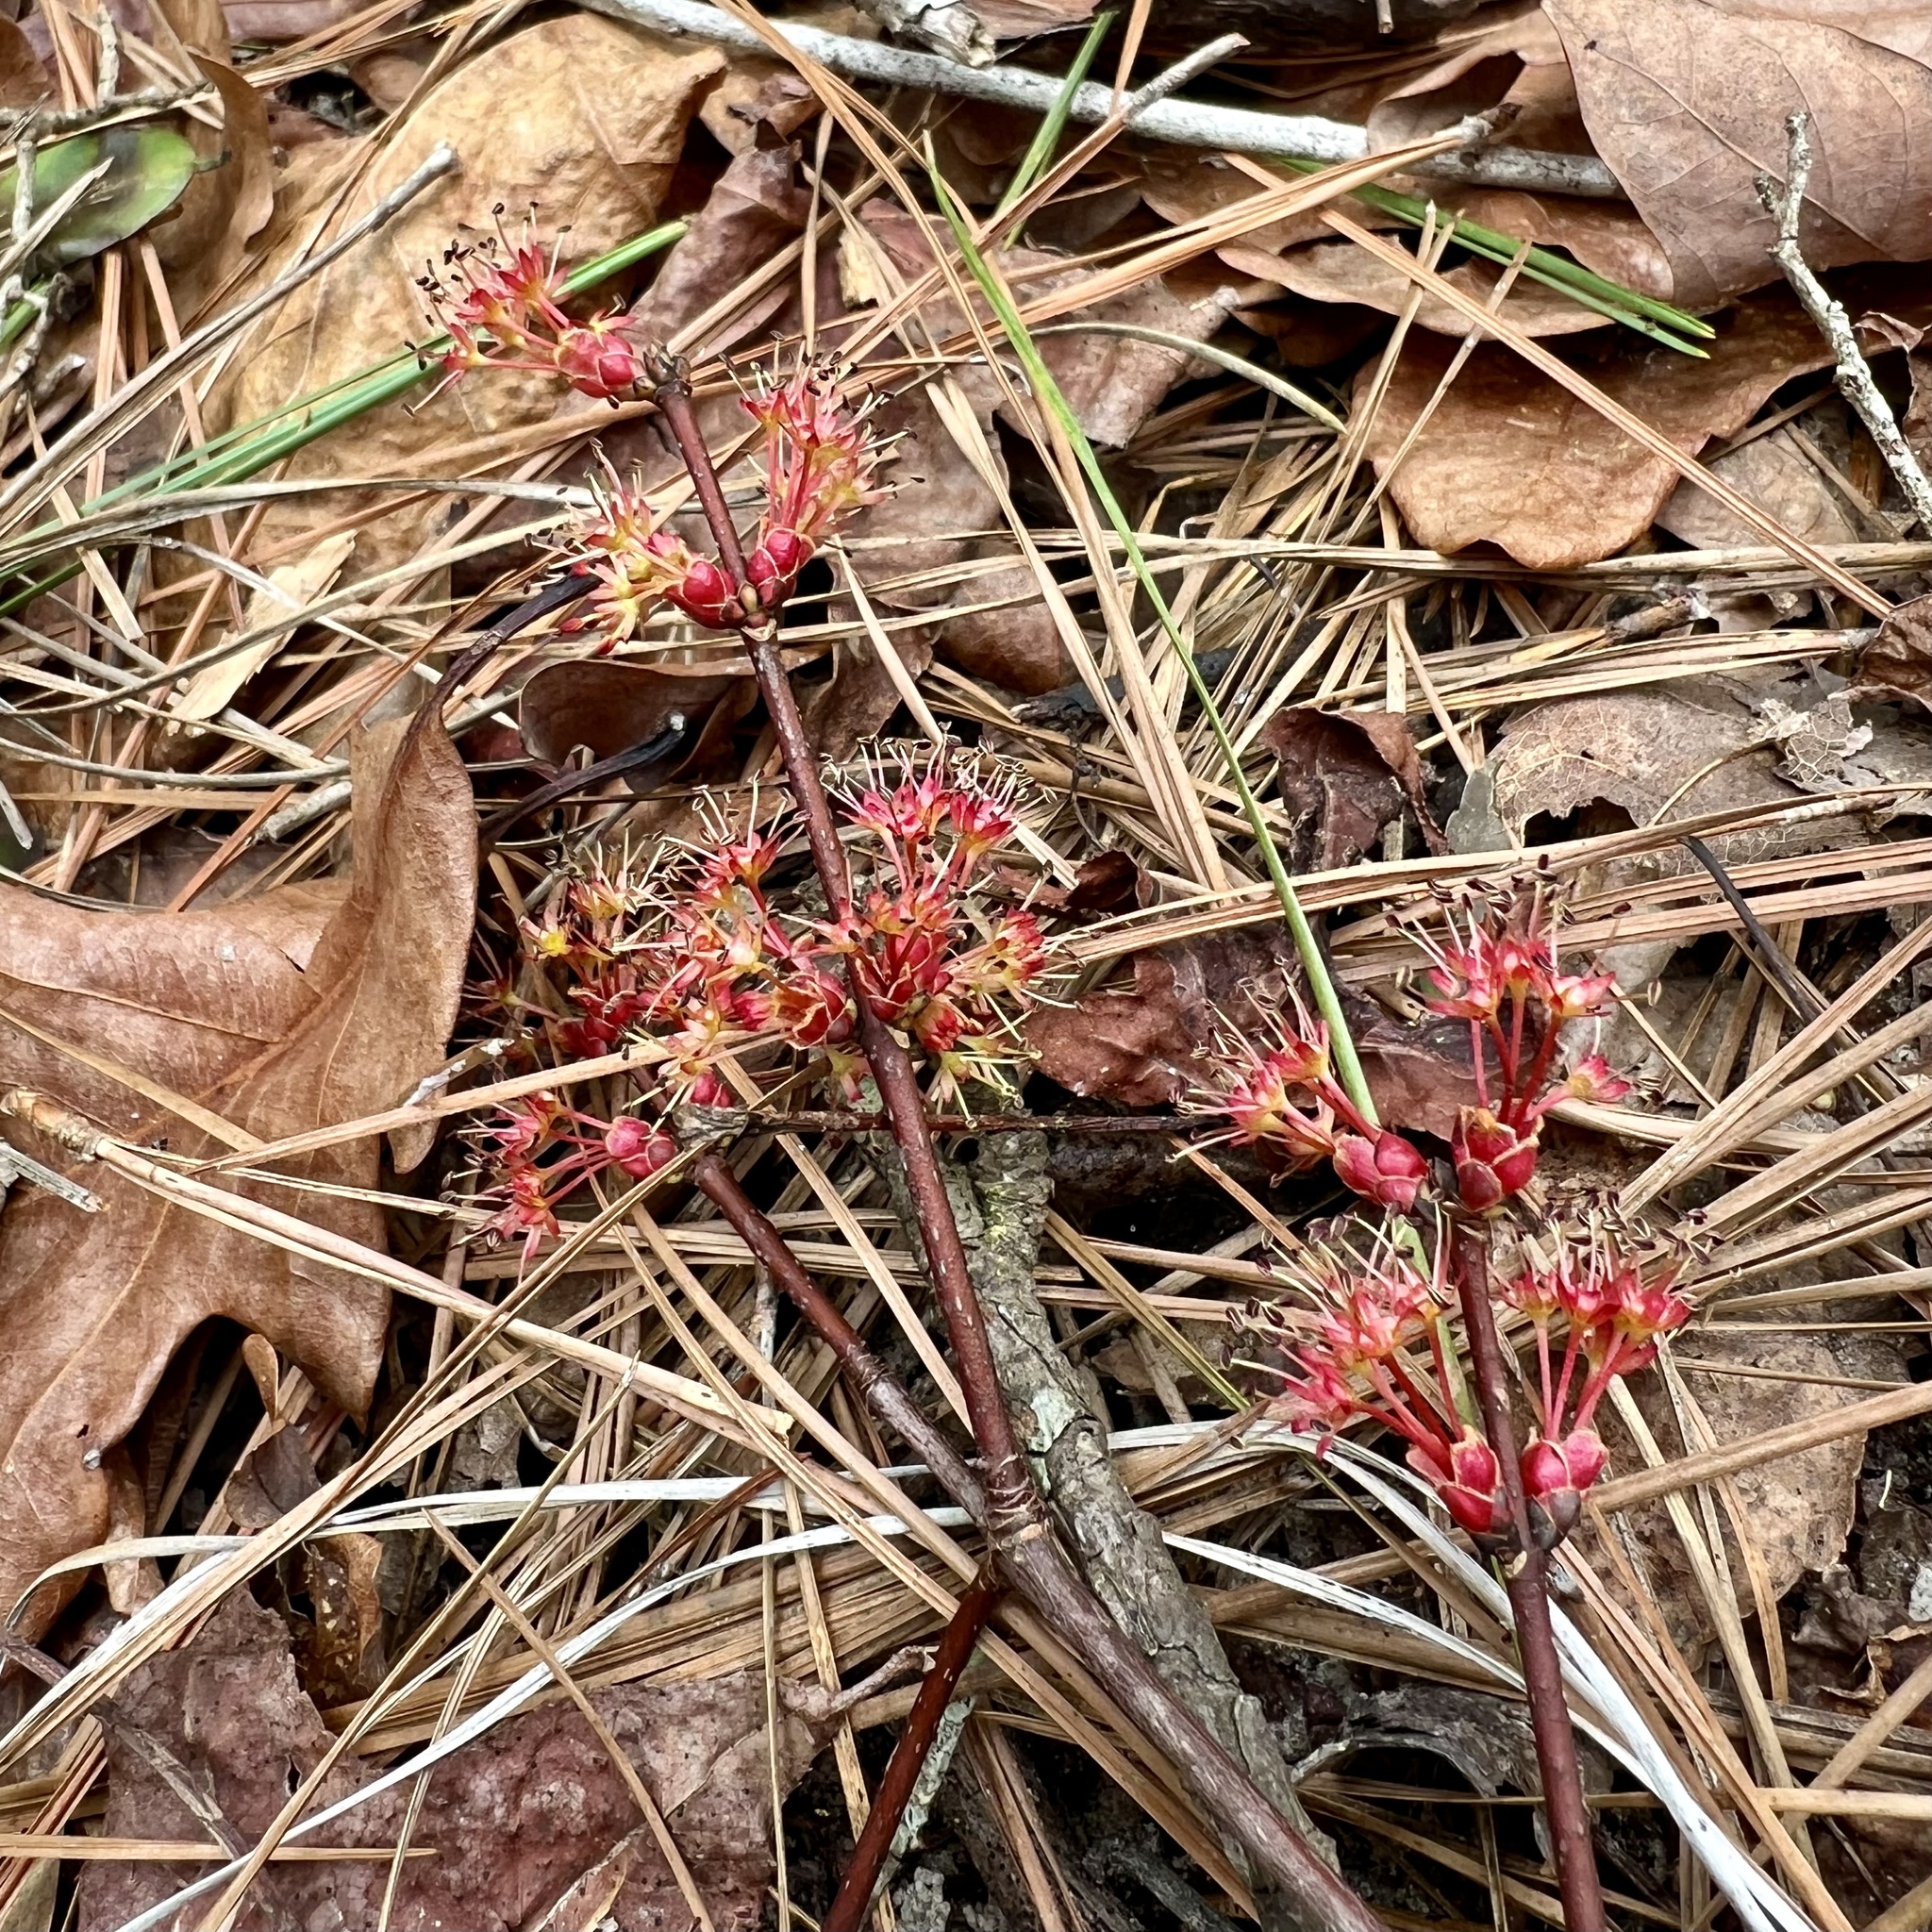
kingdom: Plantae
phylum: Tracheophyta
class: Magnoliopsida
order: Sapindales
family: Sapindaceae
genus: Acer
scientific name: Acer rubrum
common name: Red maple
